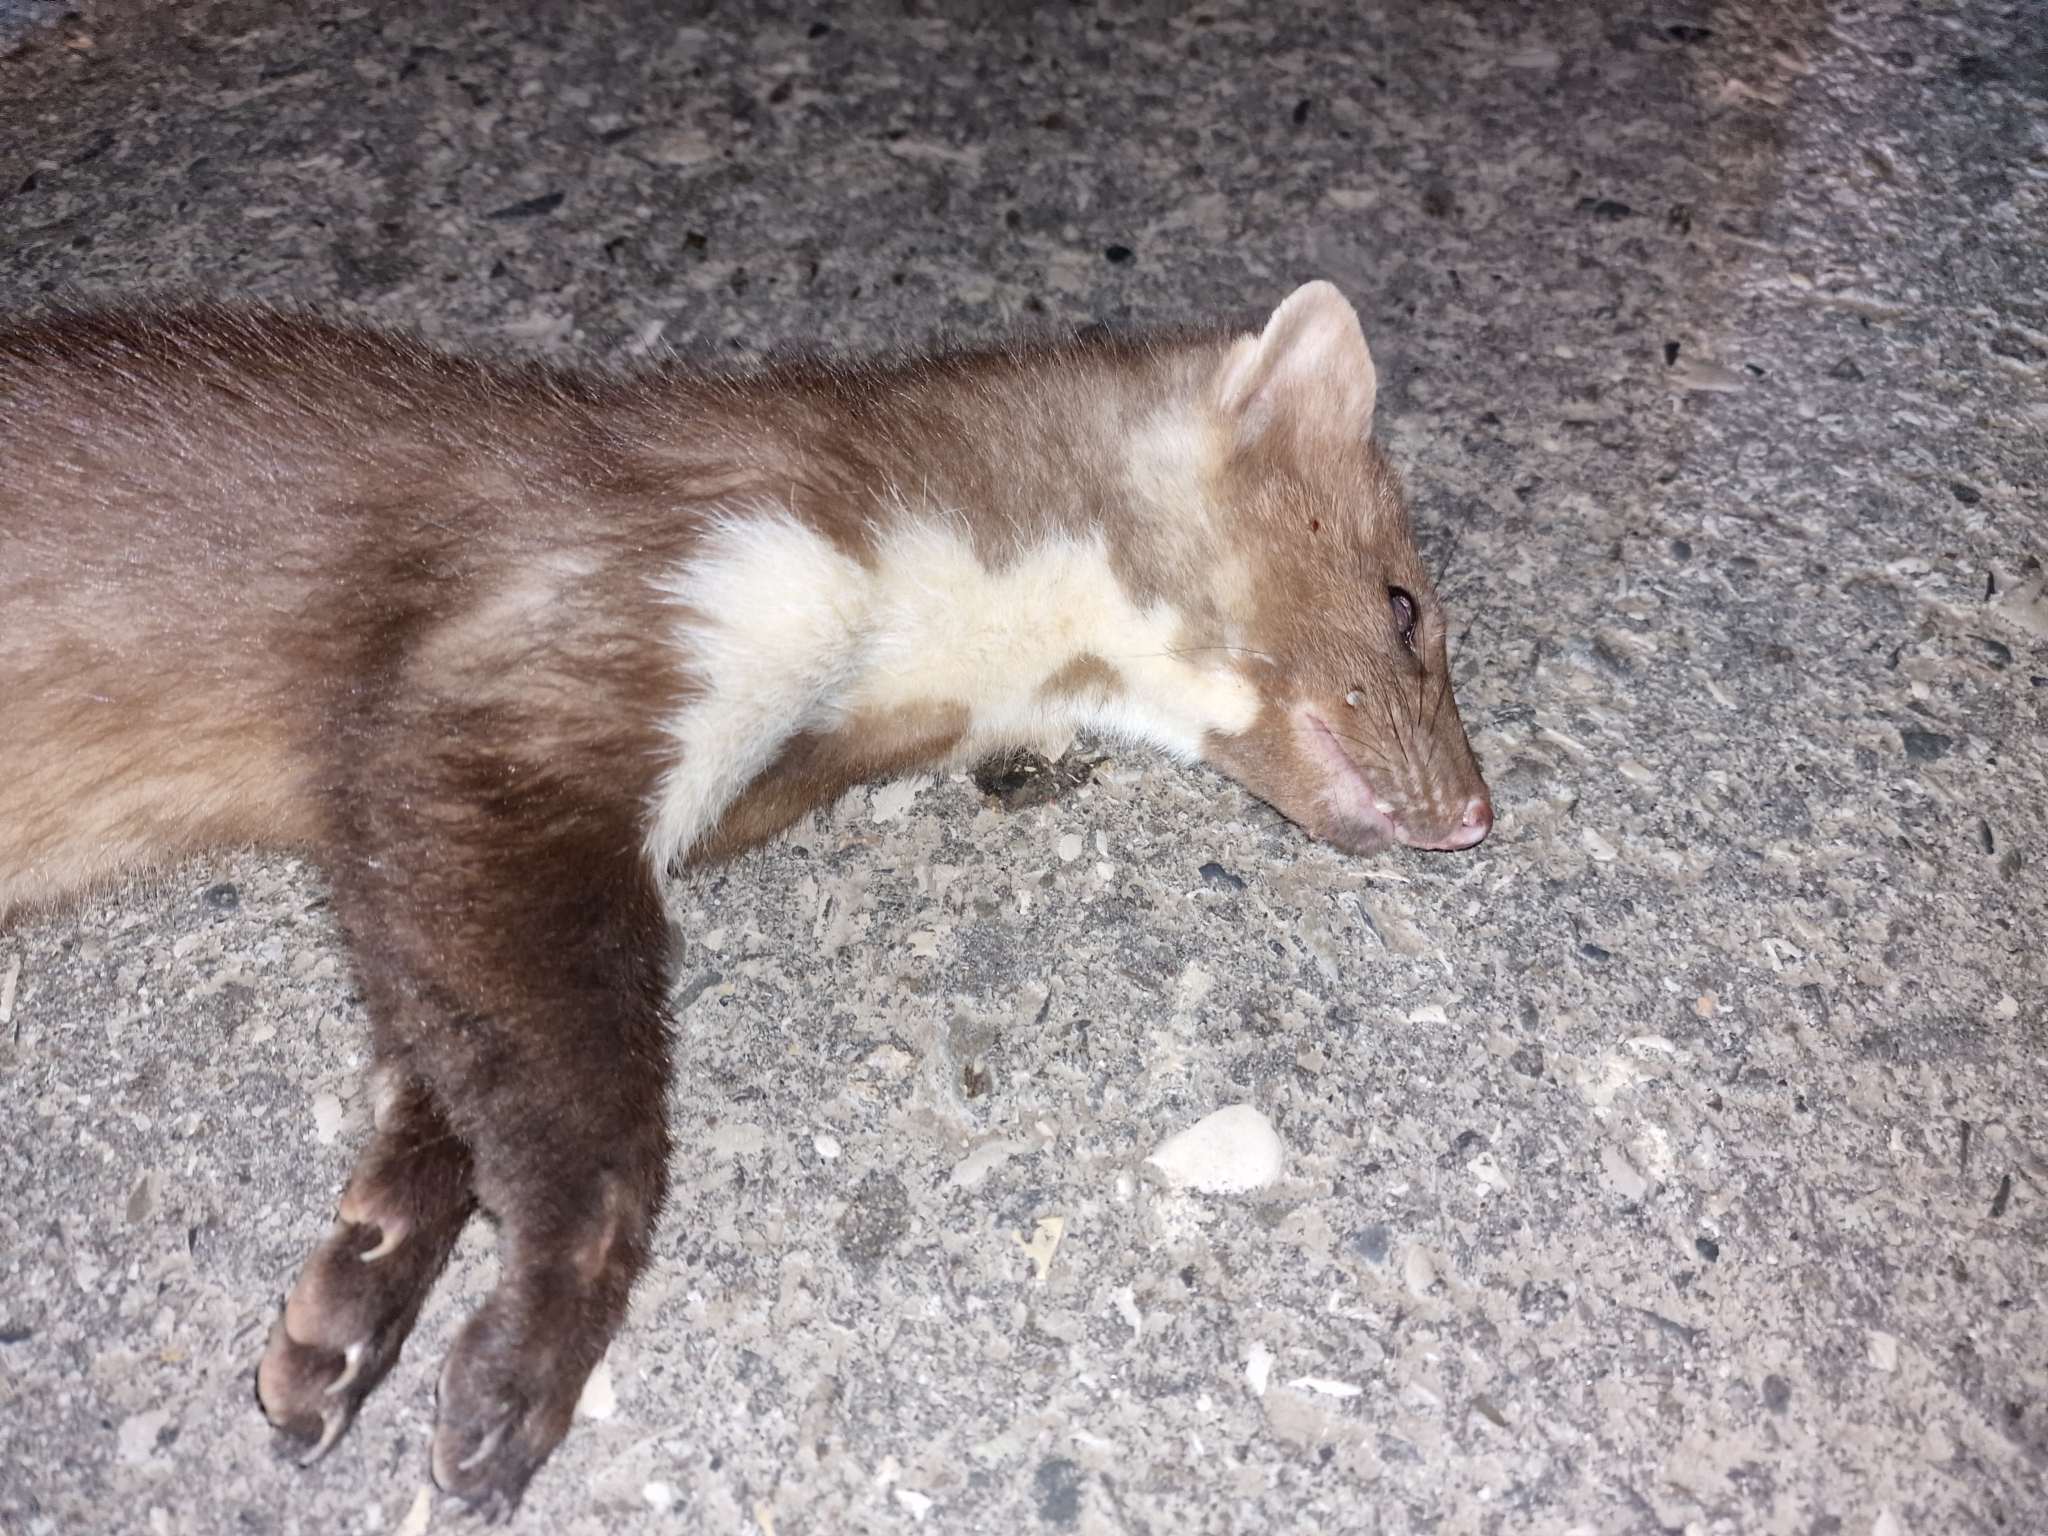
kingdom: Animalia
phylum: Chordata
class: Mammalia
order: Carnivora
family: Mustelidae
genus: Martes
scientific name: Martes foina
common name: Beech marten
